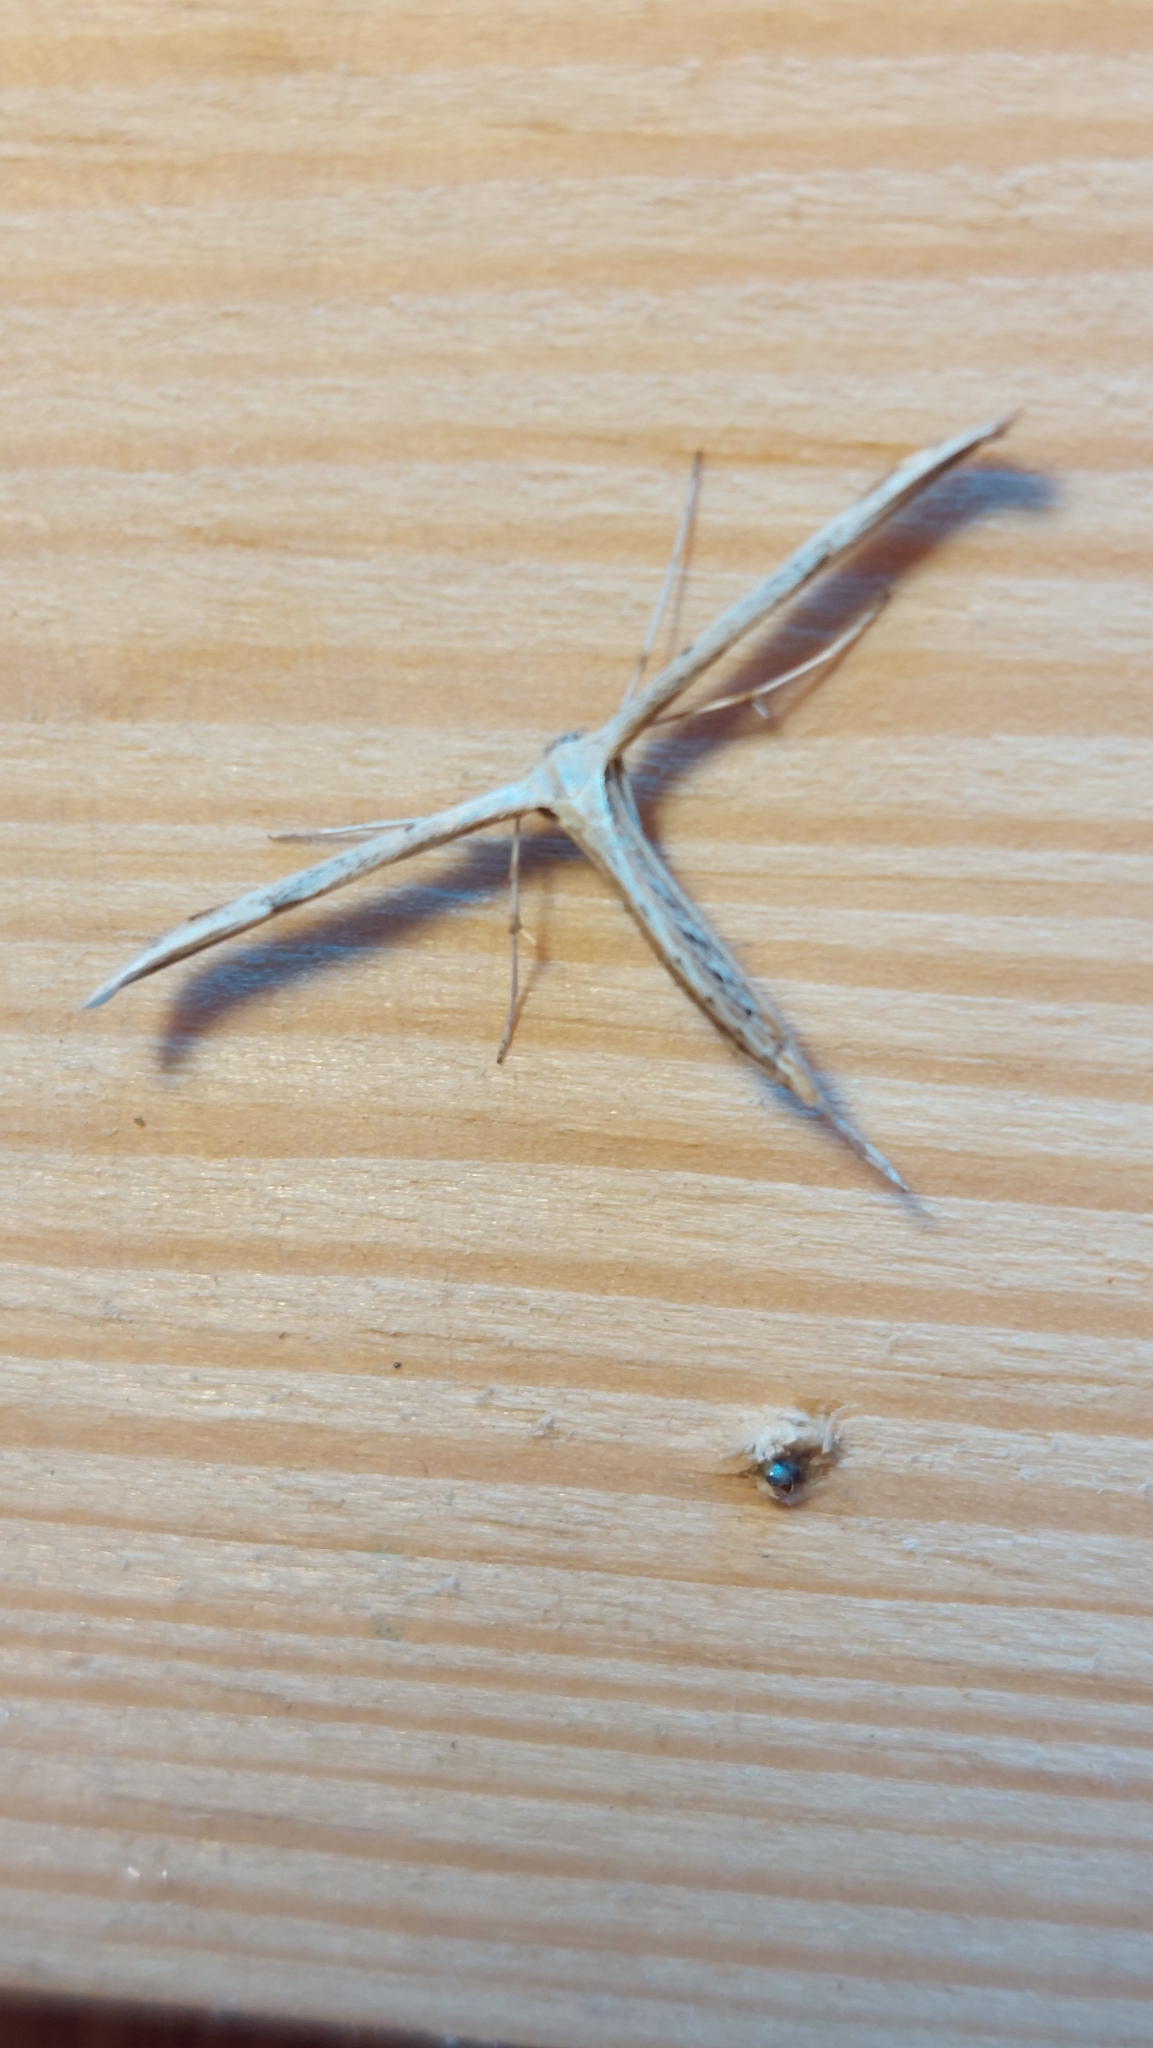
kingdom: Animalia
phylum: Arthropoda
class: Insecta
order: Lepidoptera
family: Pterophoridae
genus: Emmelina
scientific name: Emmelina monodactyla
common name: Common plume
